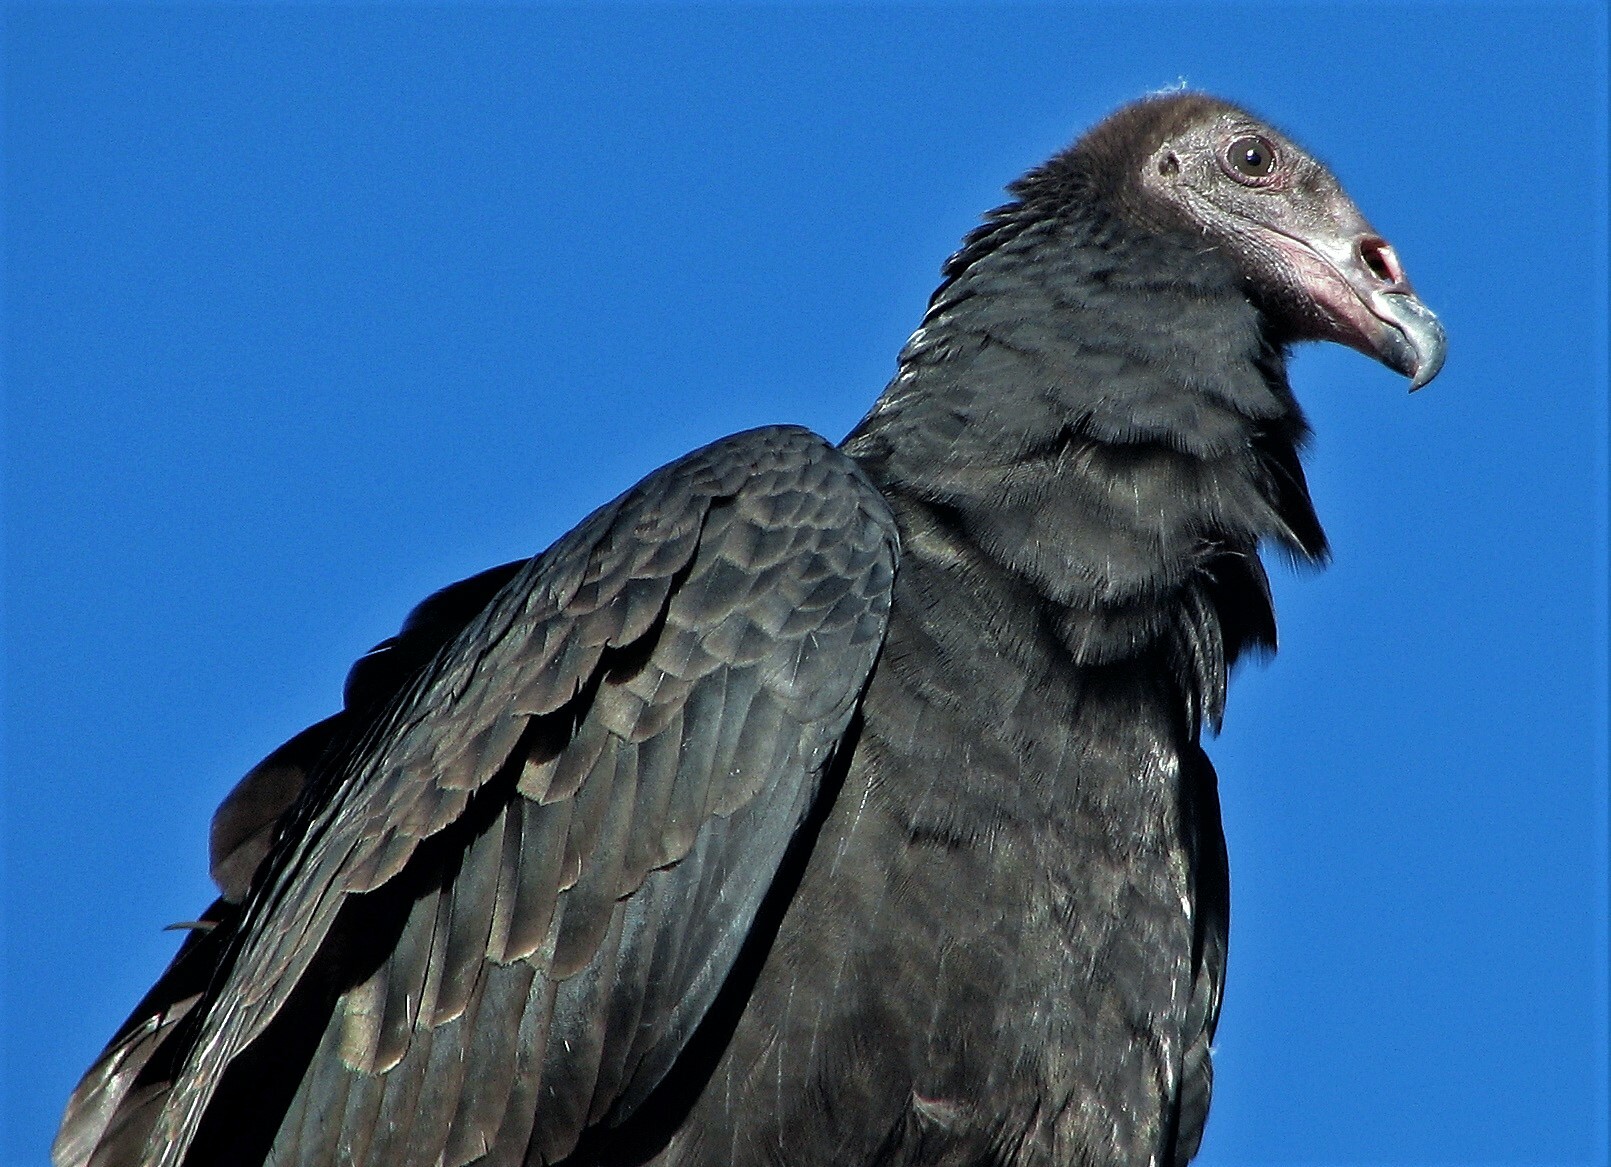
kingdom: Animalia
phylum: Chordata
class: Aves
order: Accipitriformes
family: Cathartidae
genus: Cathartes
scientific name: Cathartes aura
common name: Turkey vulture
